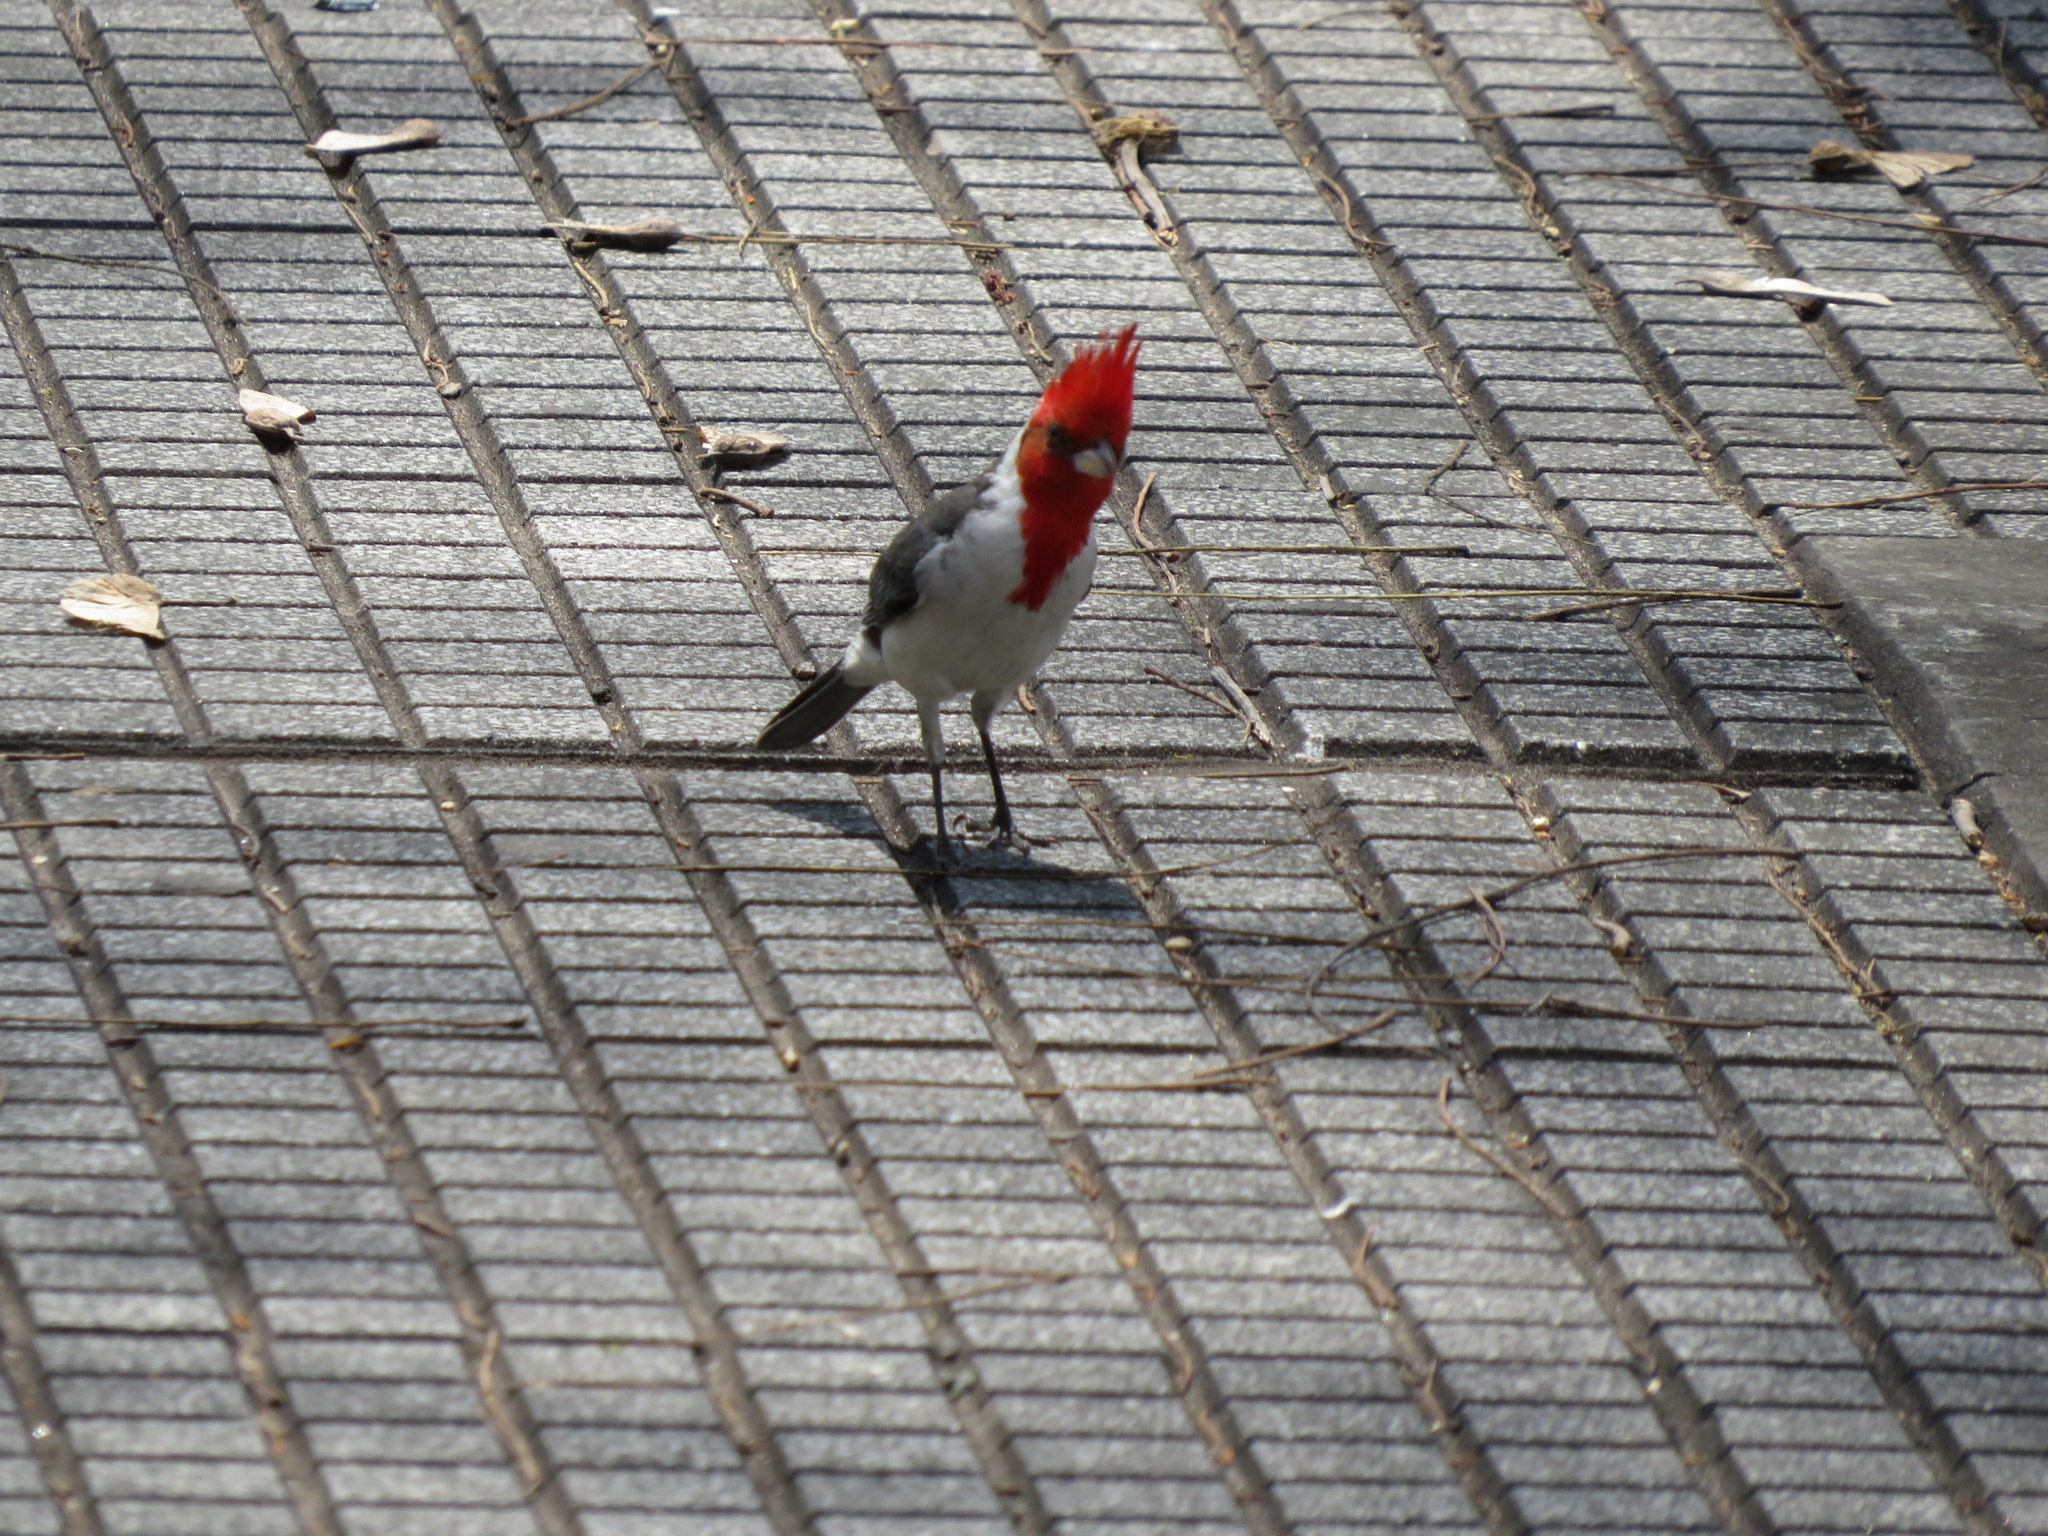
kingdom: Animalia
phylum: Chordata
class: Aves
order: Passeriformes
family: Thraupidae
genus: Paroaria
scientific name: Paroaria coronata
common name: Red-crested cardinal
